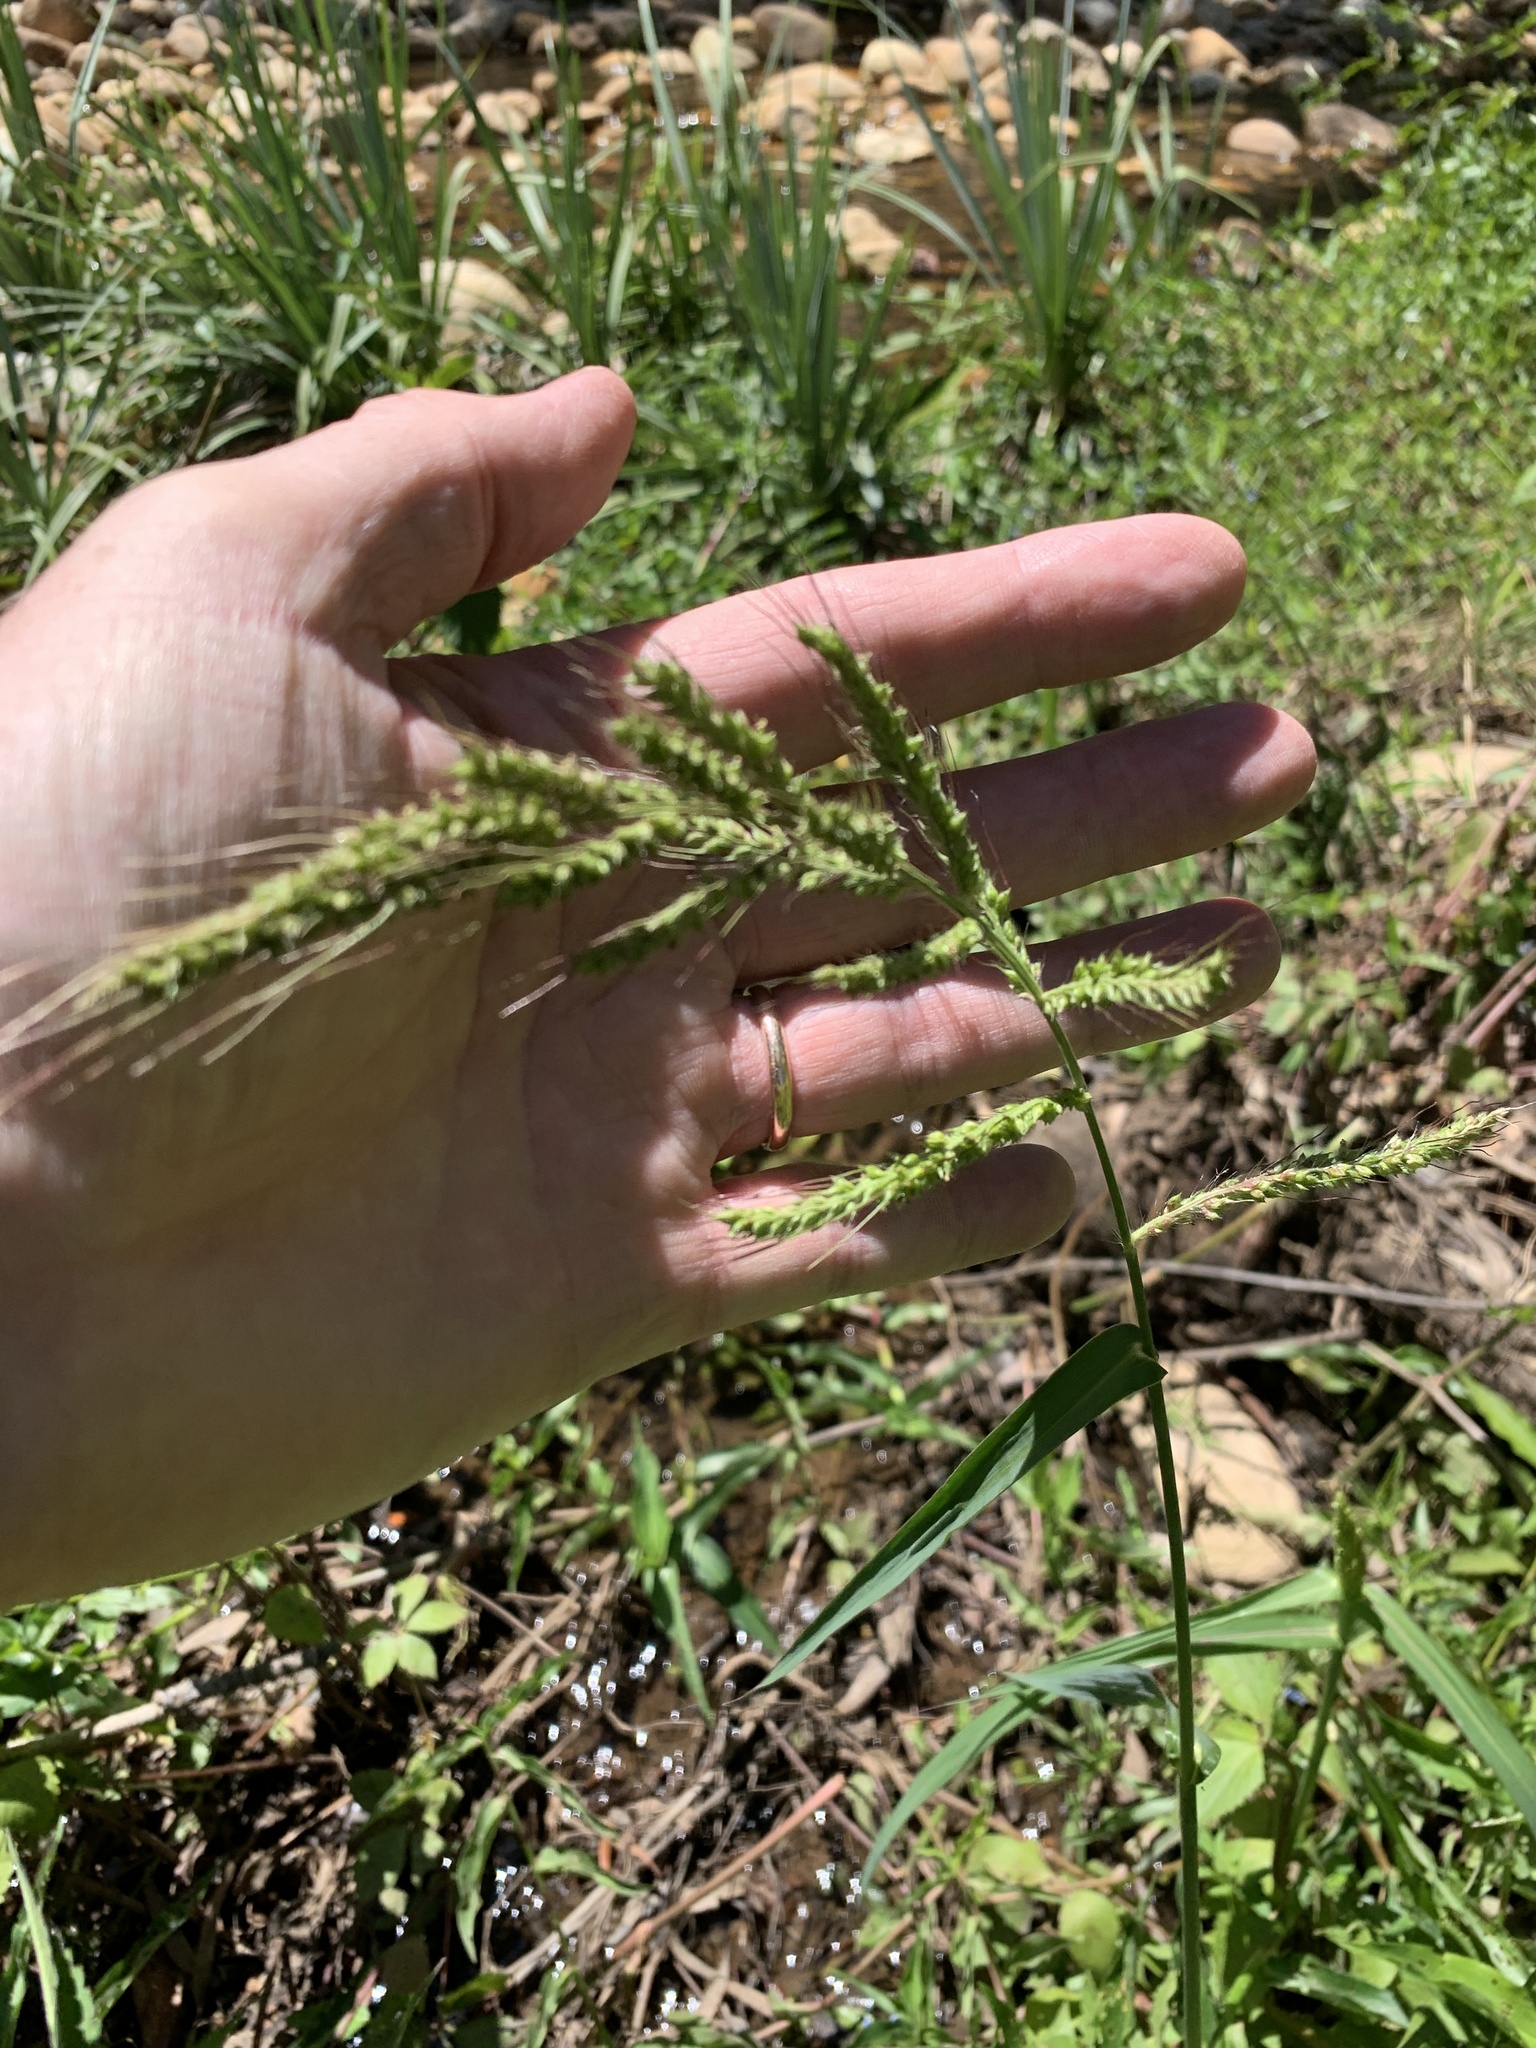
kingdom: Plantae
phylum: Tracheophyta
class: Liliopsida
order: Poales
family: Poaceae
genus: Echinochloa
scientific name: Echinochloa jubata
